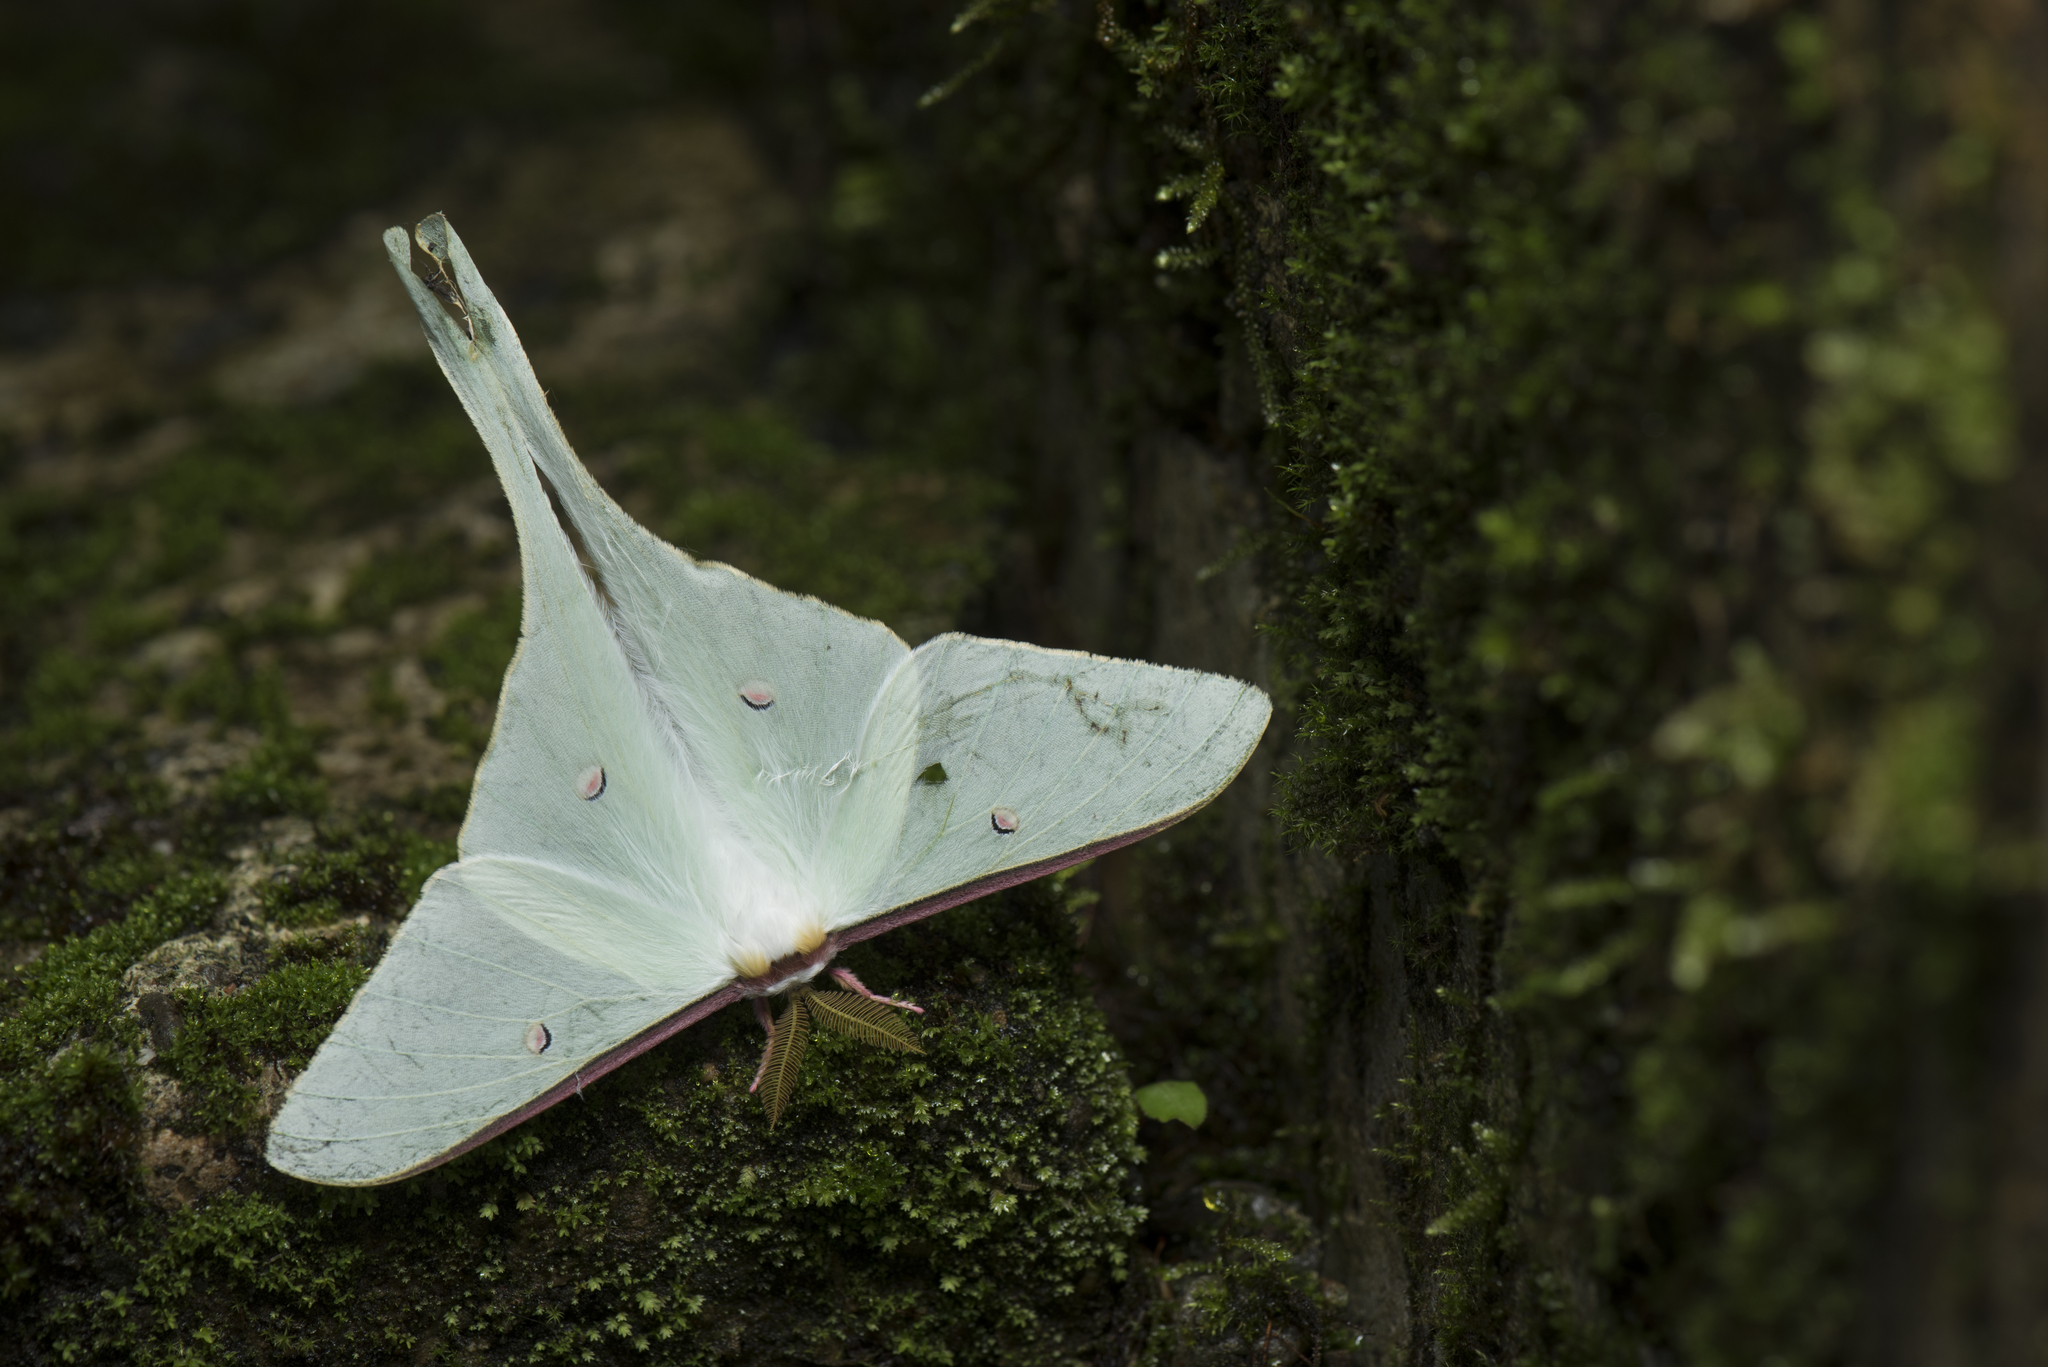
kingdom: Animalia
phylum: Arthropoda
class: Insecta
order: Lepidoptera
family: Saturniidae
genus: Actias
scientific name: Actias neidhoeferi
